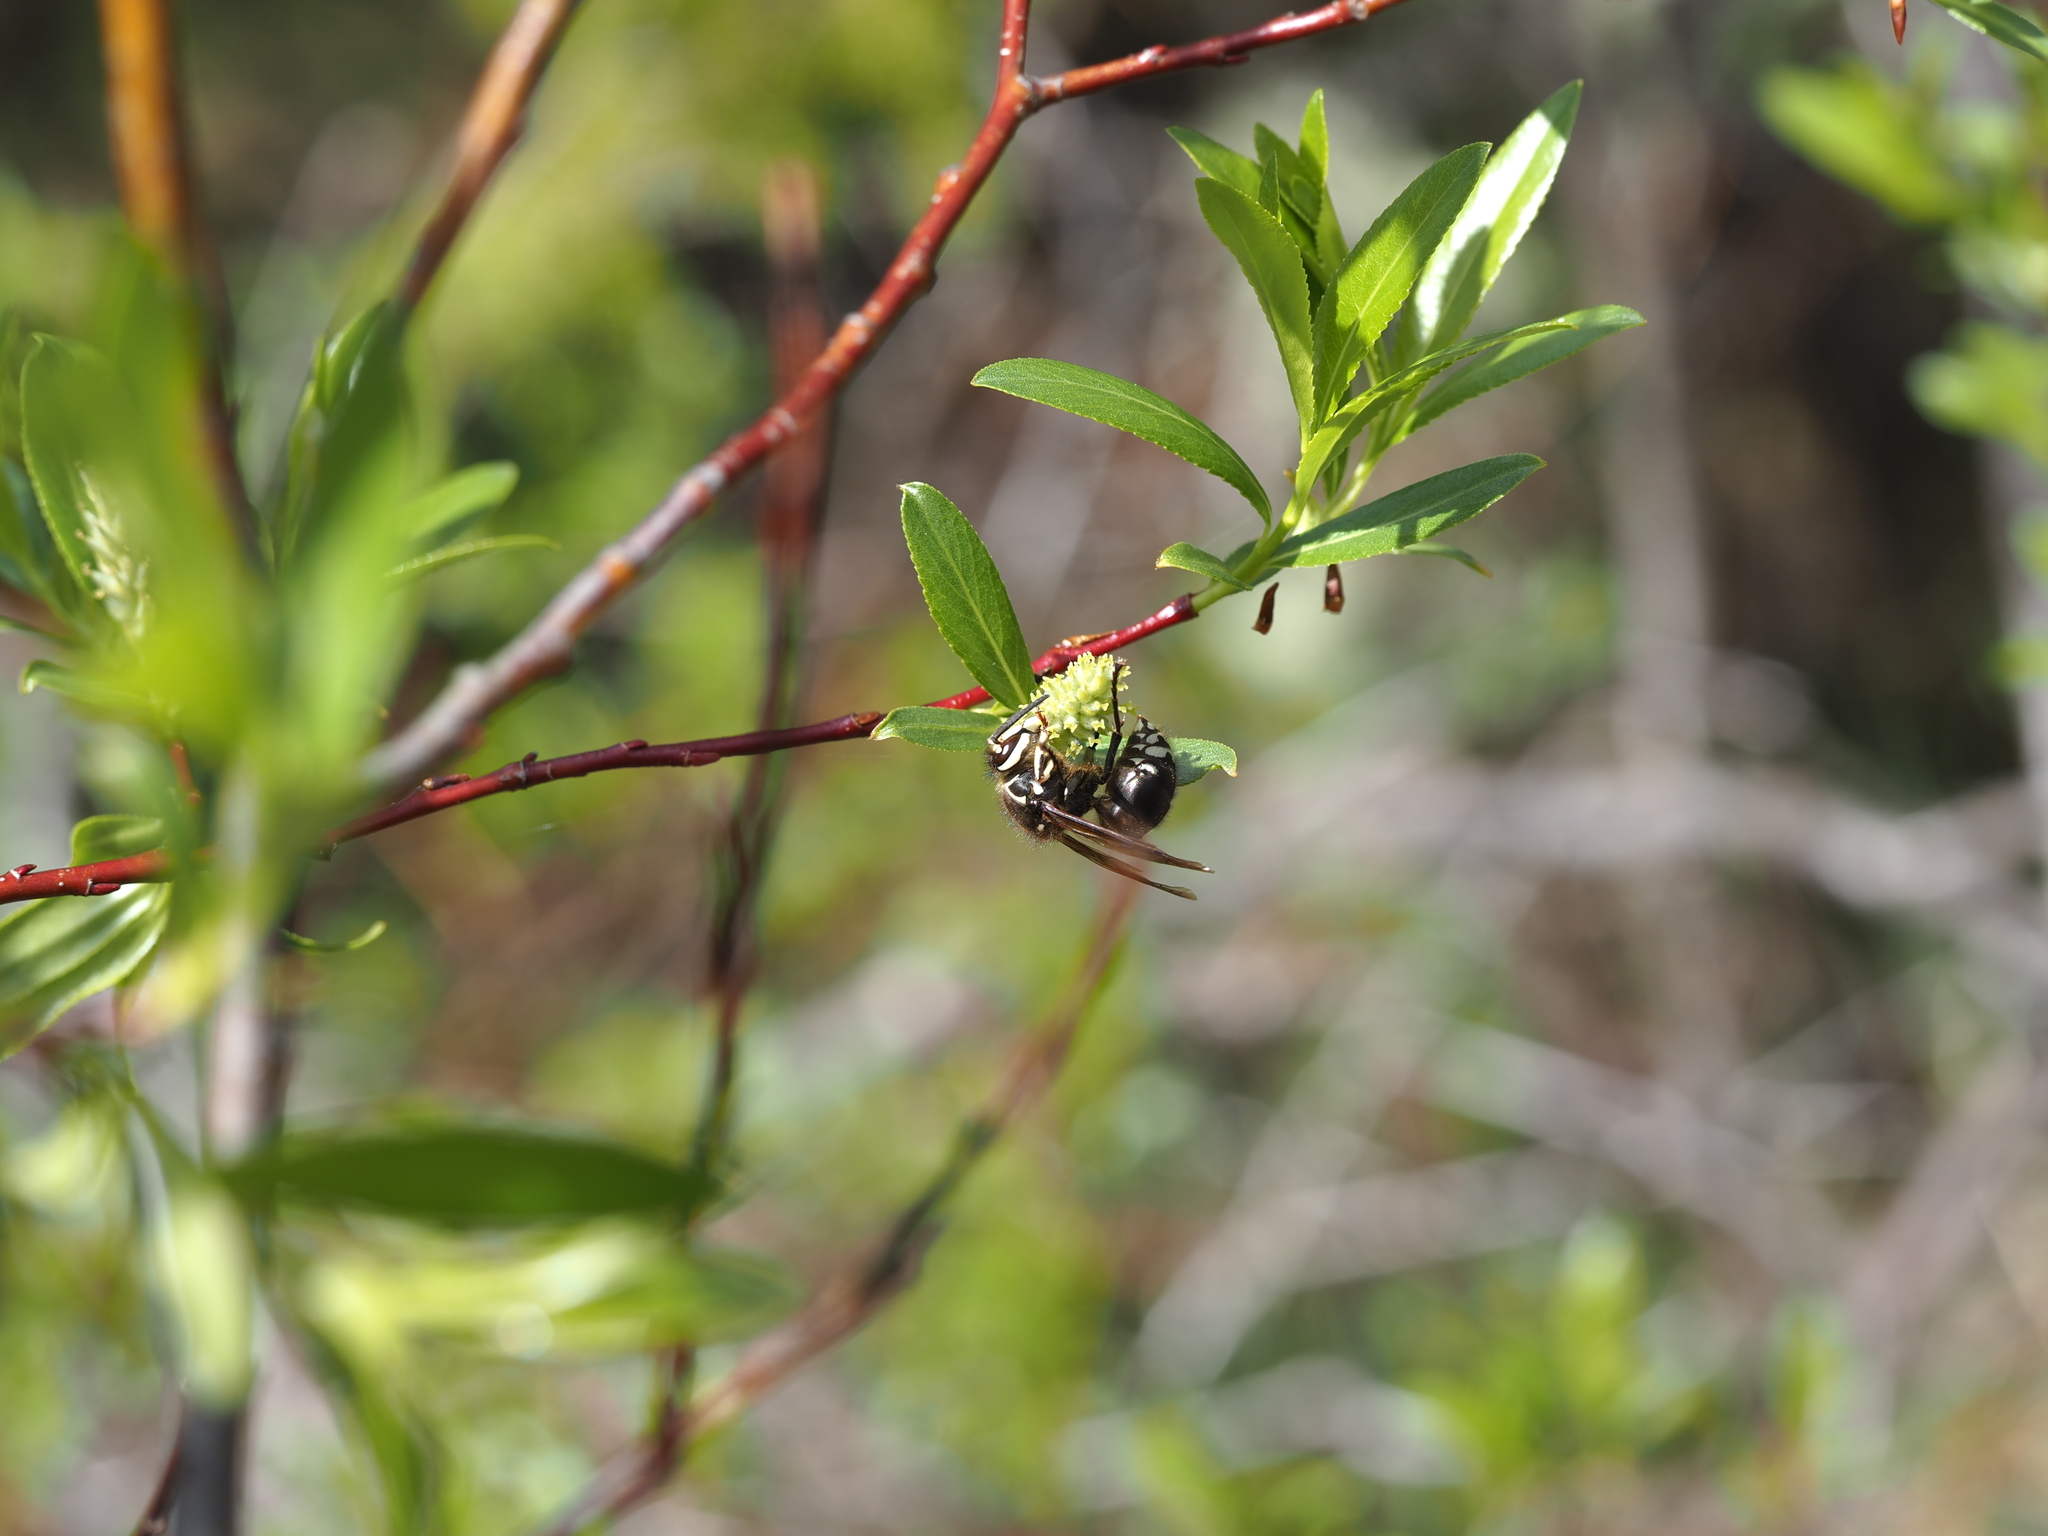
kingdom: Animalia
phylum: Arthropoda
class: Insecta
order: Hymenoptera
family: Vespidae
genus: Dolichovespula
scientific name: Dolichovespula maculata
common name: Bald-faced hornet
